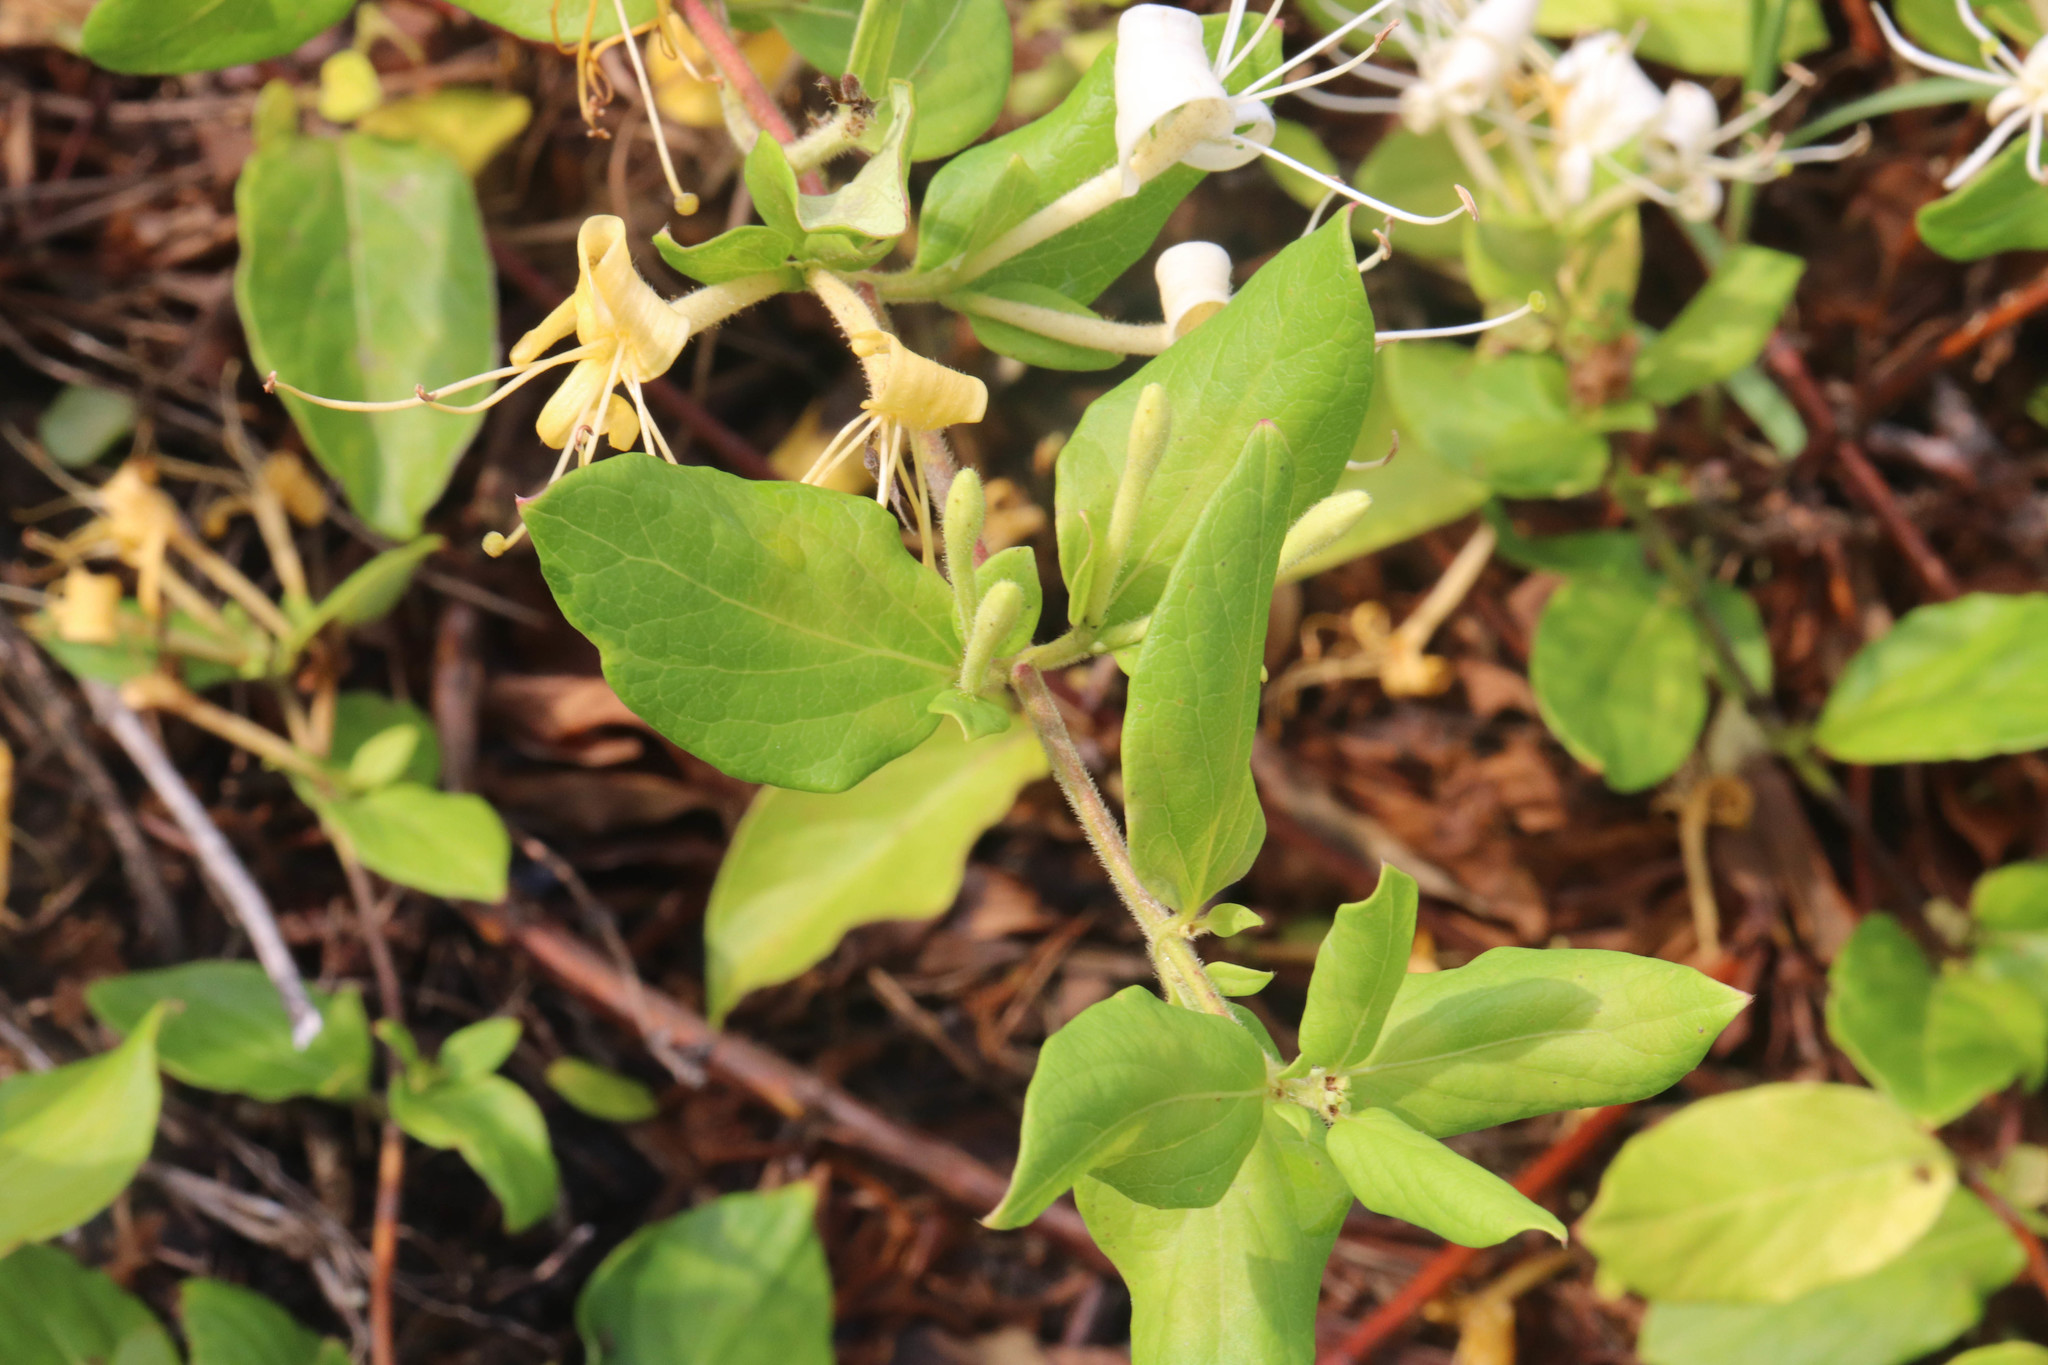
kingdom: Plantae
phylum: Tracheophyta
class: Magnoliopsida
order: Dipsacales
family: Caprifoliaceae
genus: Lonicera
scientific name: Lonicera japonica
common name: Japanese honeysuckle
